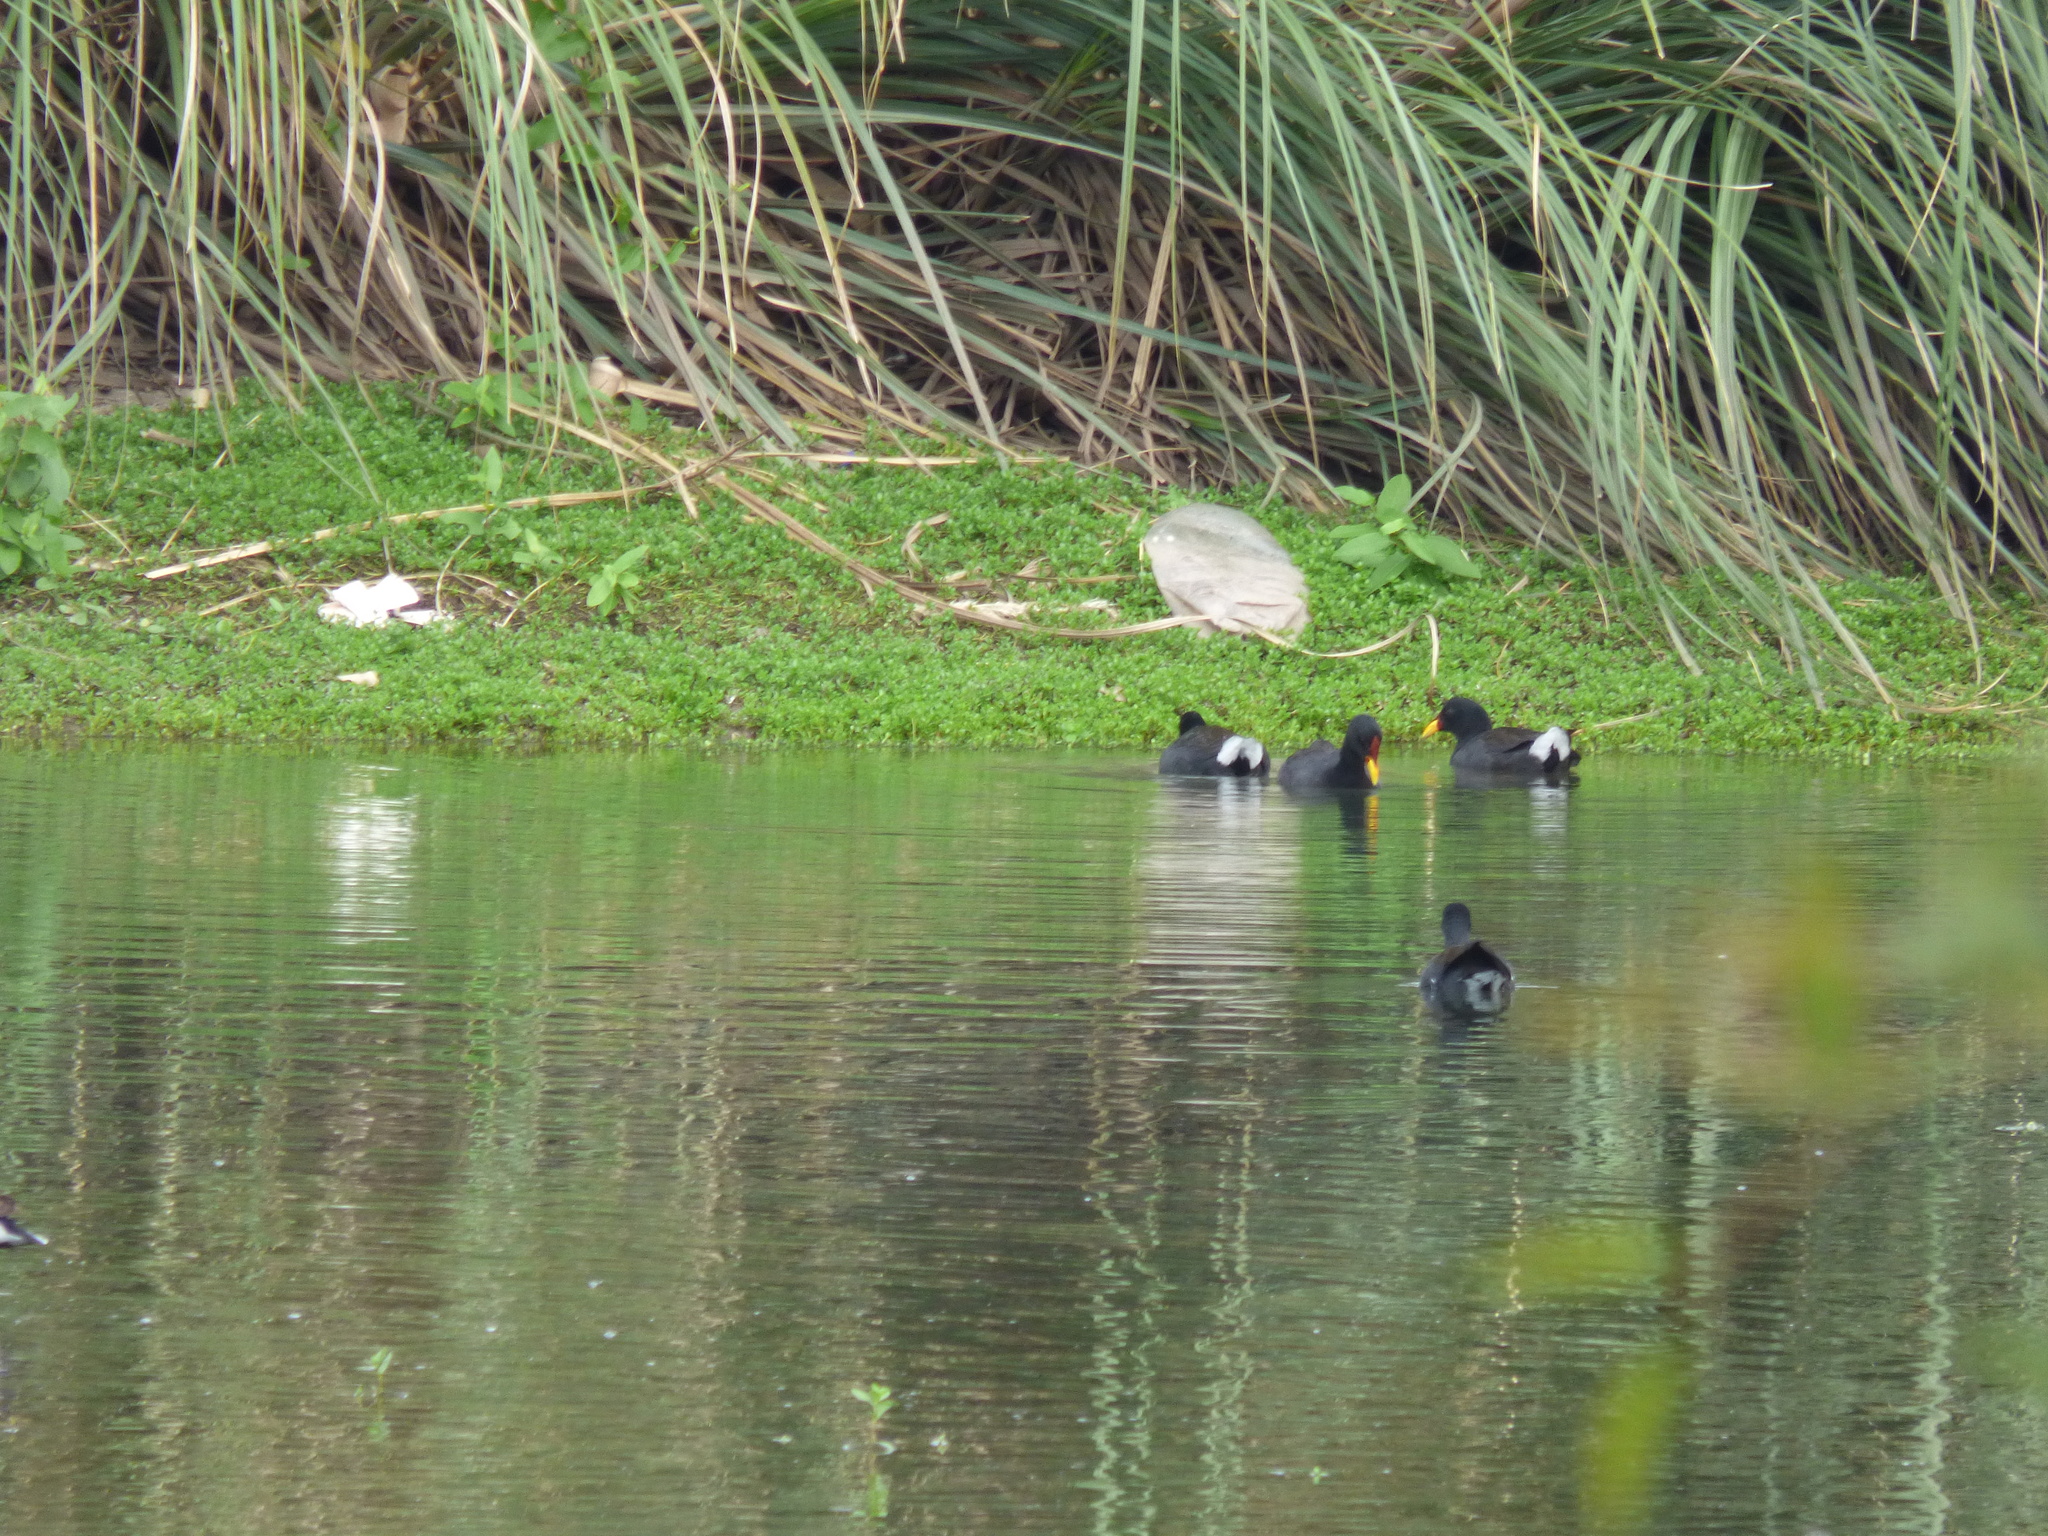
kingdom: Animalia
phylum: Chordata
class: Aves
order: Gruiformes
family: Rallidae
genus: Fulica
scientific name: Fulica rufifrons
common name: Red-fronted coot
